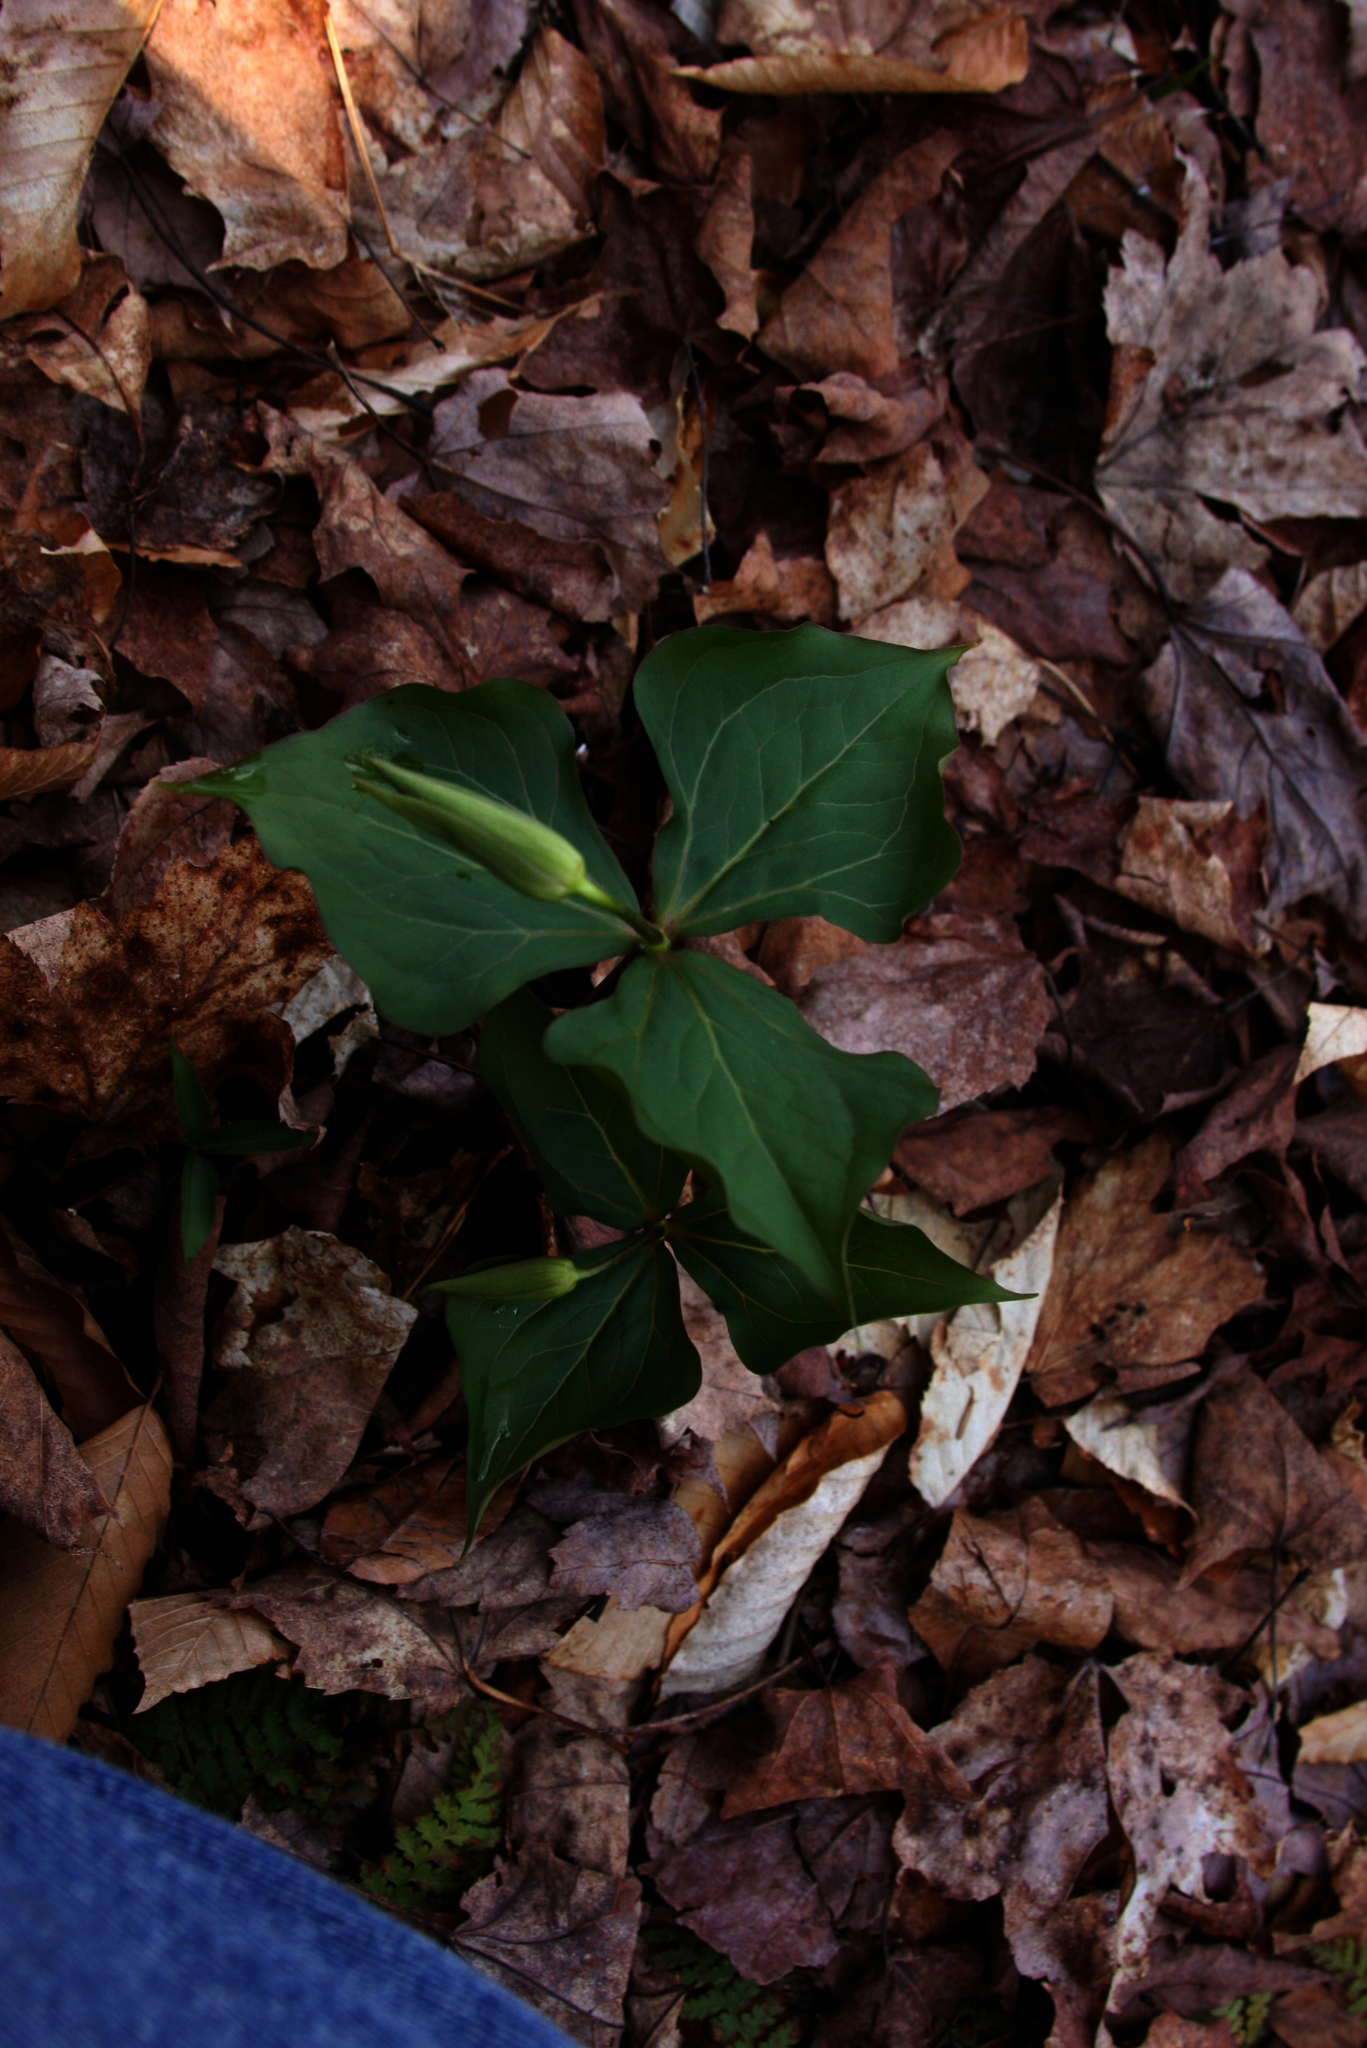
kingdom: Plantae
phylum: Tracheophyta
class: Liliopsida
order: Liliales
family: Melanthiaceae
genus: Trillium
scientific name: Trillium erectum
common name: Purple trillium
